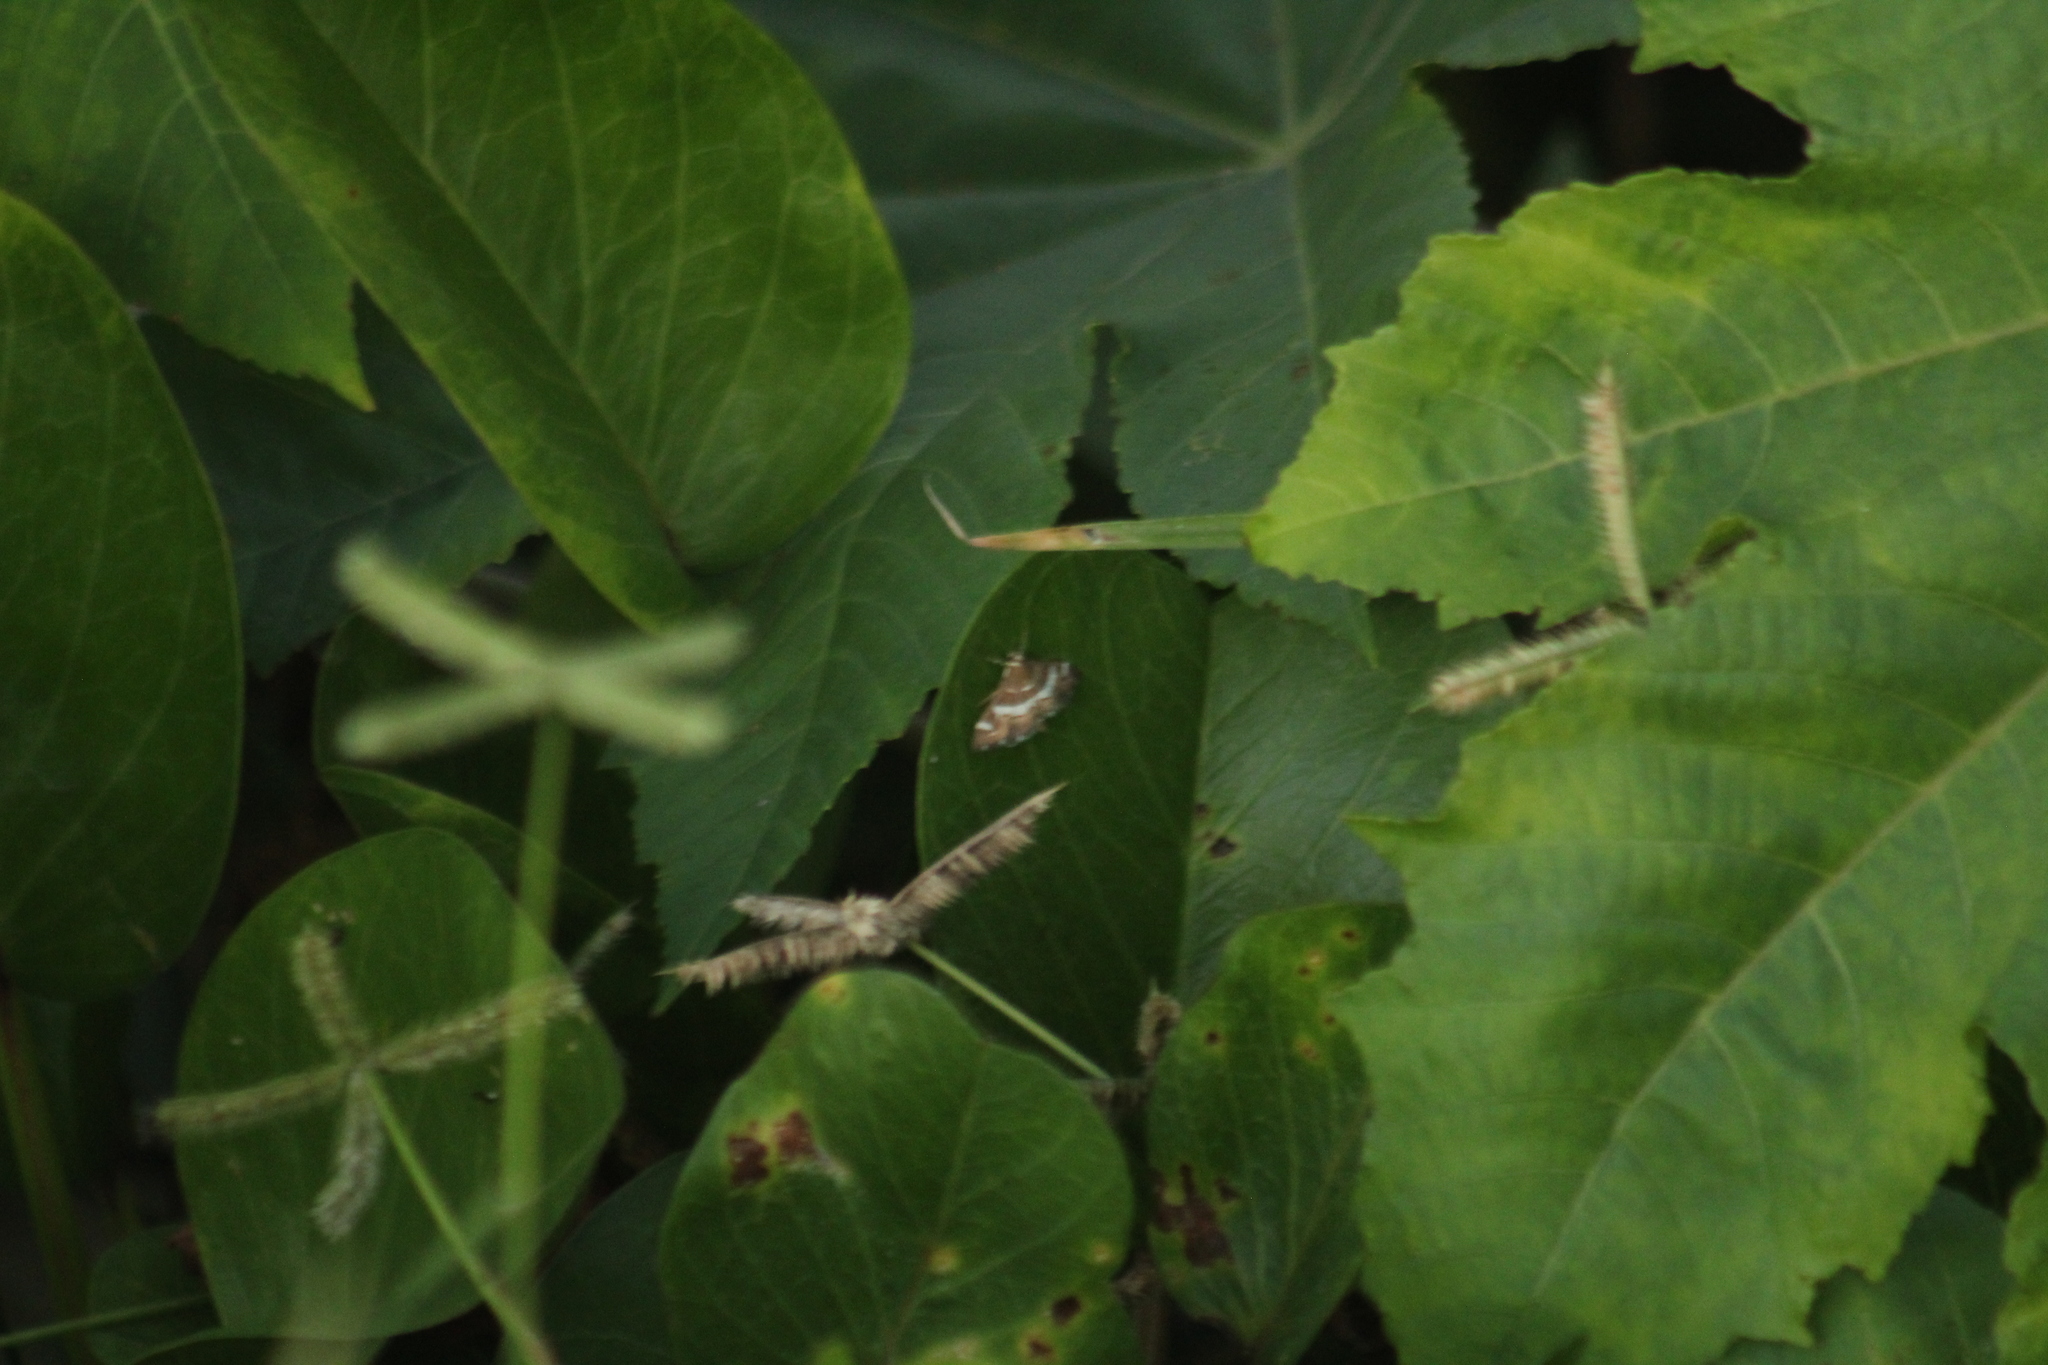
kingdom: Animalia
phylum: Arthropoda
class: Insecta
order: Lepidoptera
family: Crambidae
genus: Spoladea
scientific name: Spoladea recurvalis
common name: Beet webworm moth
